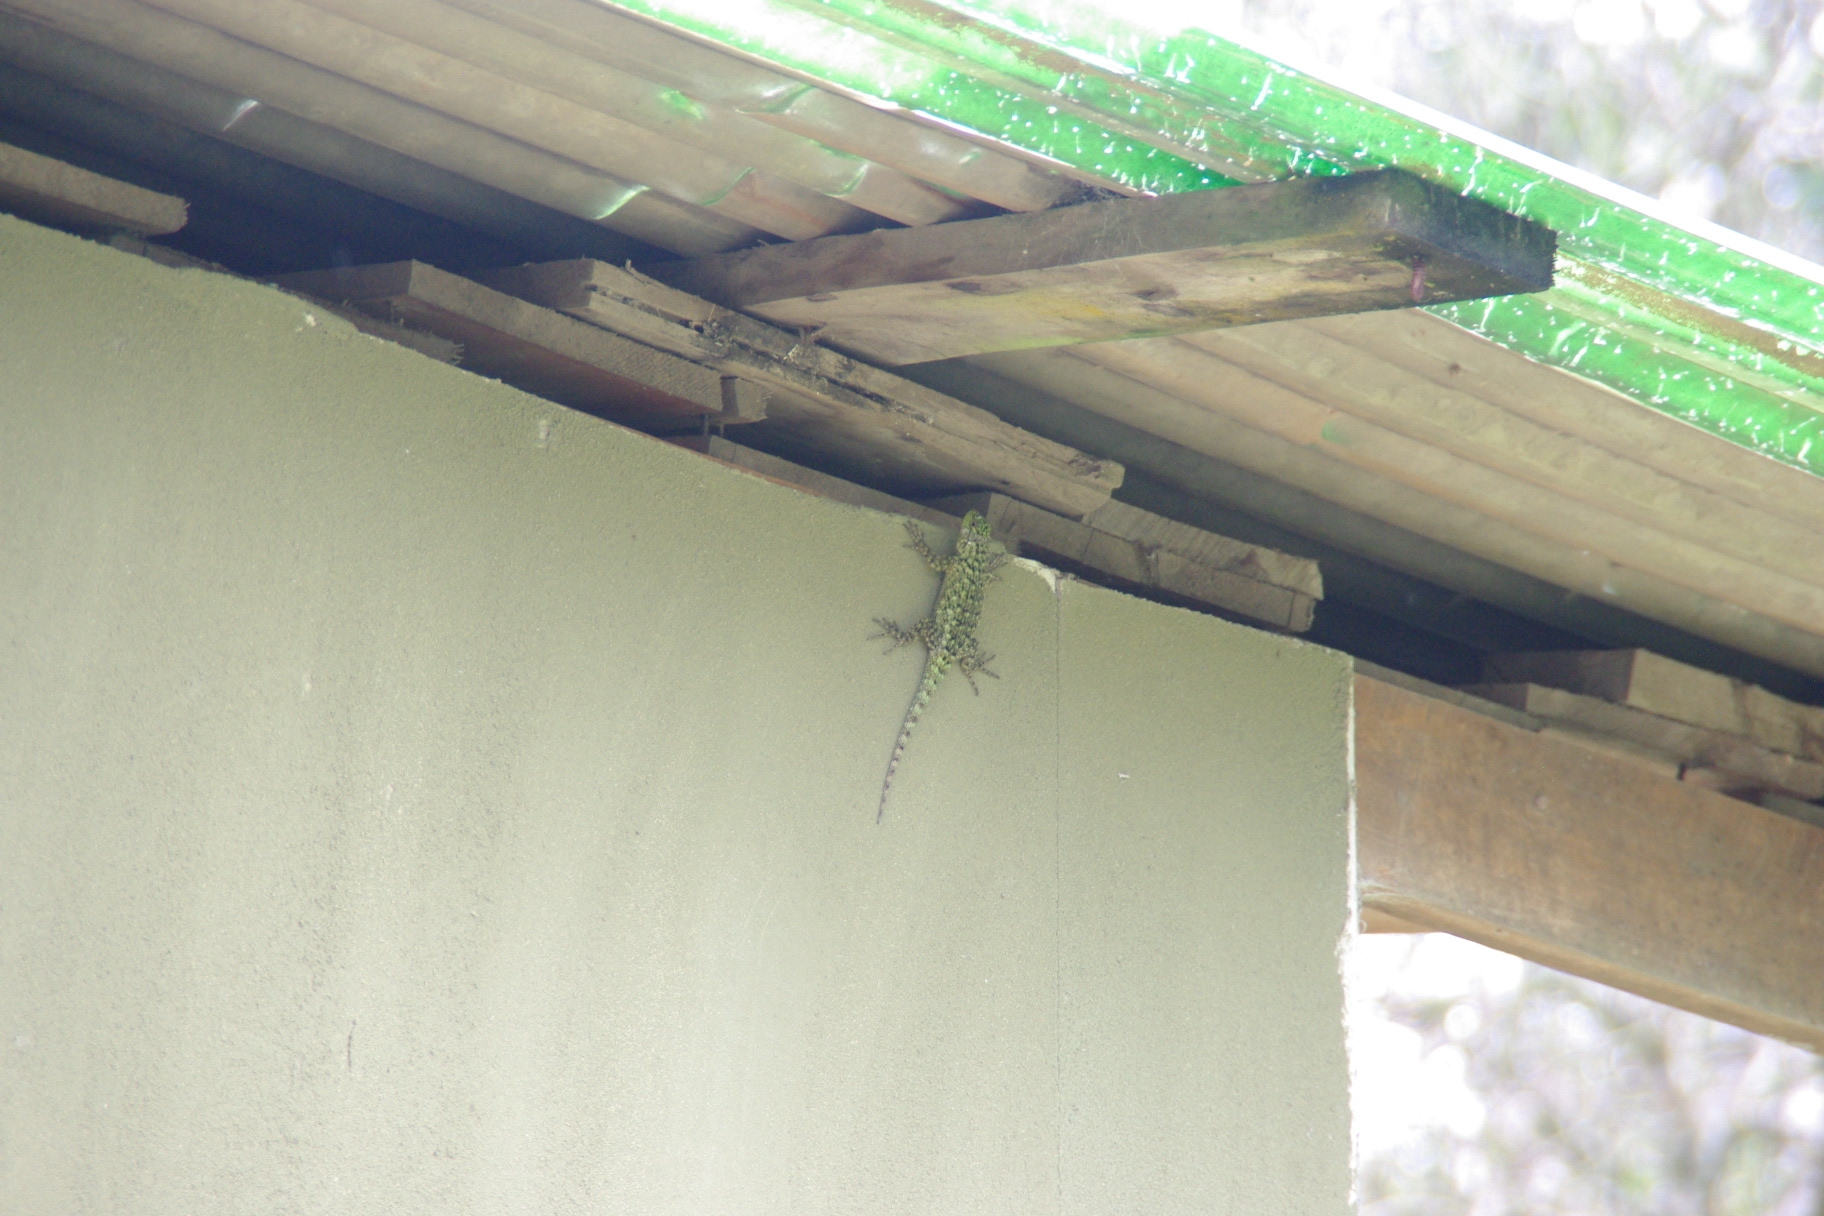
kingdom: Animalia
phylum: Chordata
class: Squamata
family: Phrynosomatidae
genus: Sceloporus
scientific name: Sceloporus malachiticus
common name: Green spiny lizard
